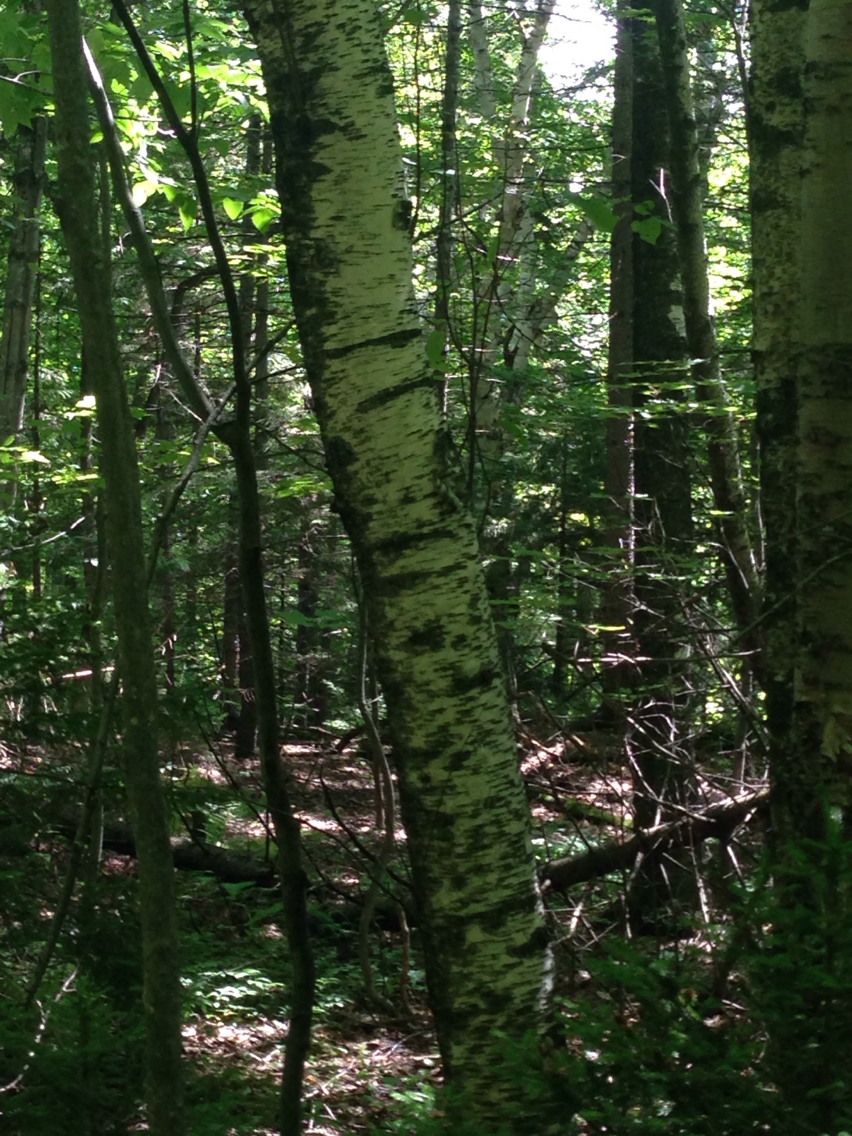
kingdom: Plantae
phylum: Tracheophyta
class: Magnoliopsida
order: Fagales
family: Betulaceae
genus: Betula
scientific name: Betula populifolia
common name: Fire birch
